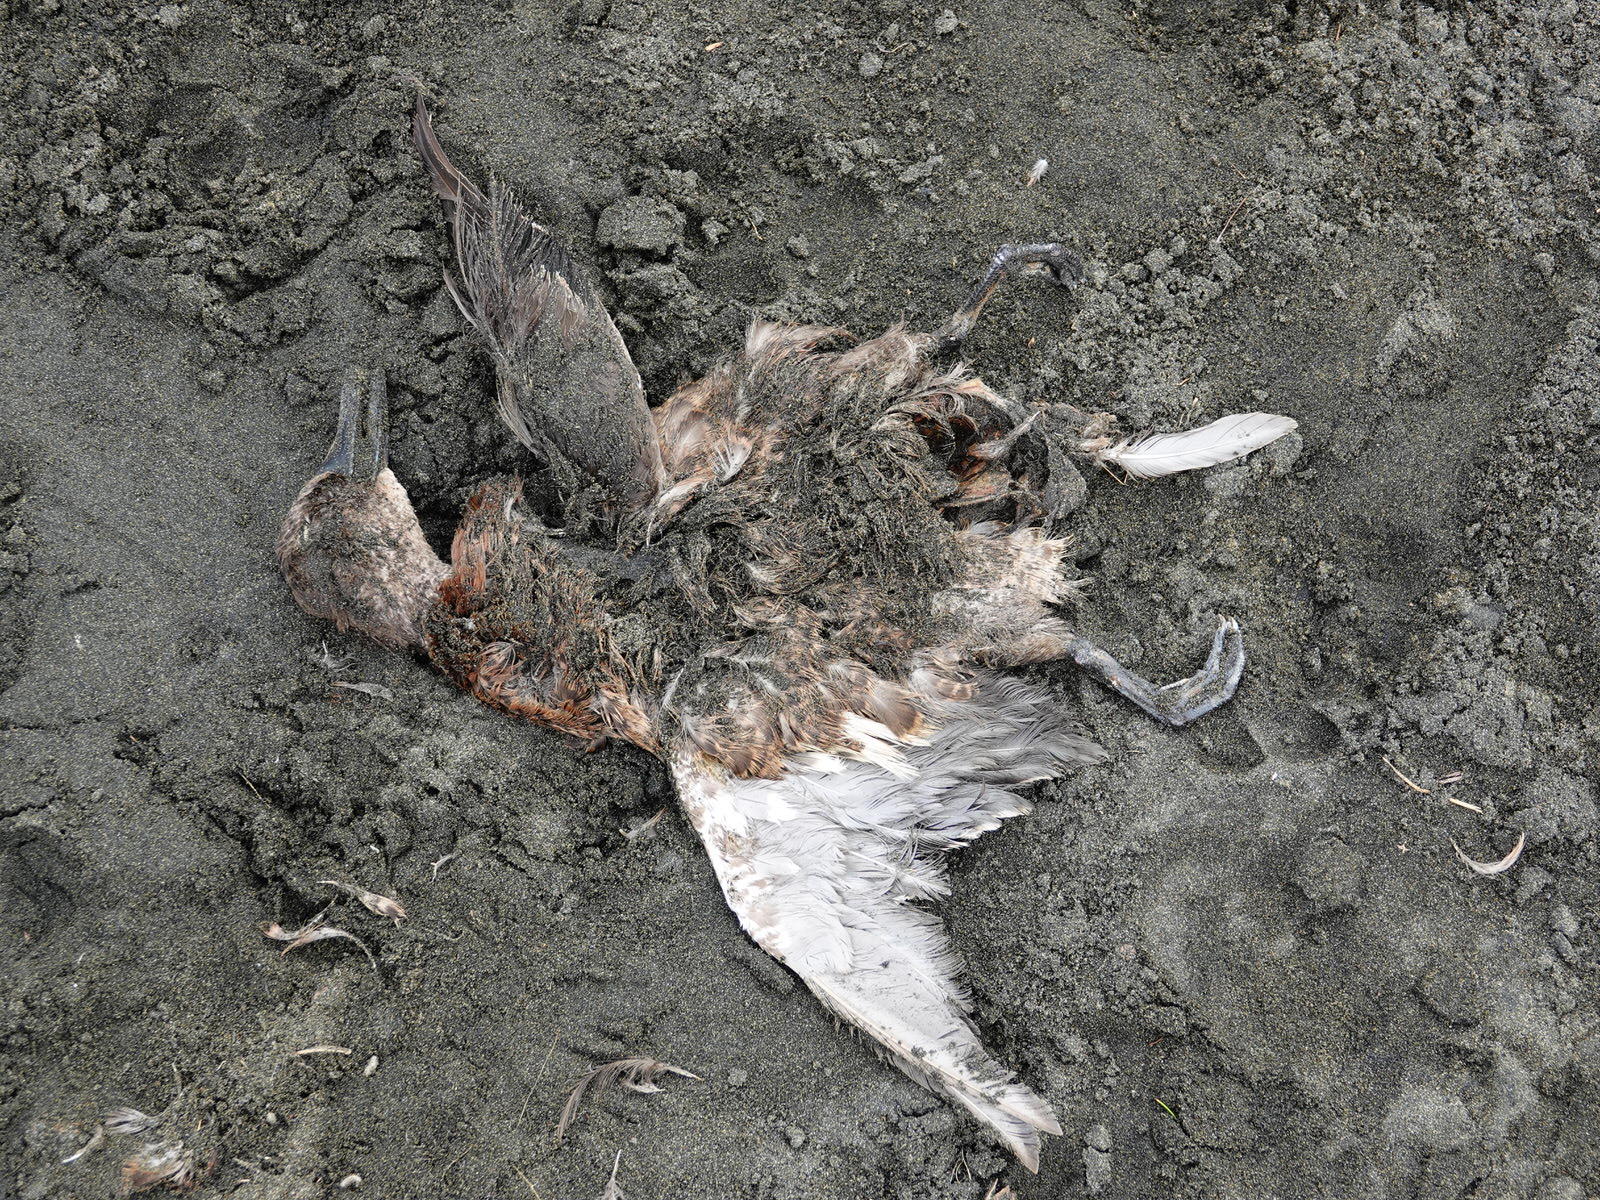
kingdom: Animalia
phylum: Chordata
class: Aves
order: Anseriformes
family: Anatidae
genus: Anas
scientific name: Anas chlorotis
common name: Brown teal
